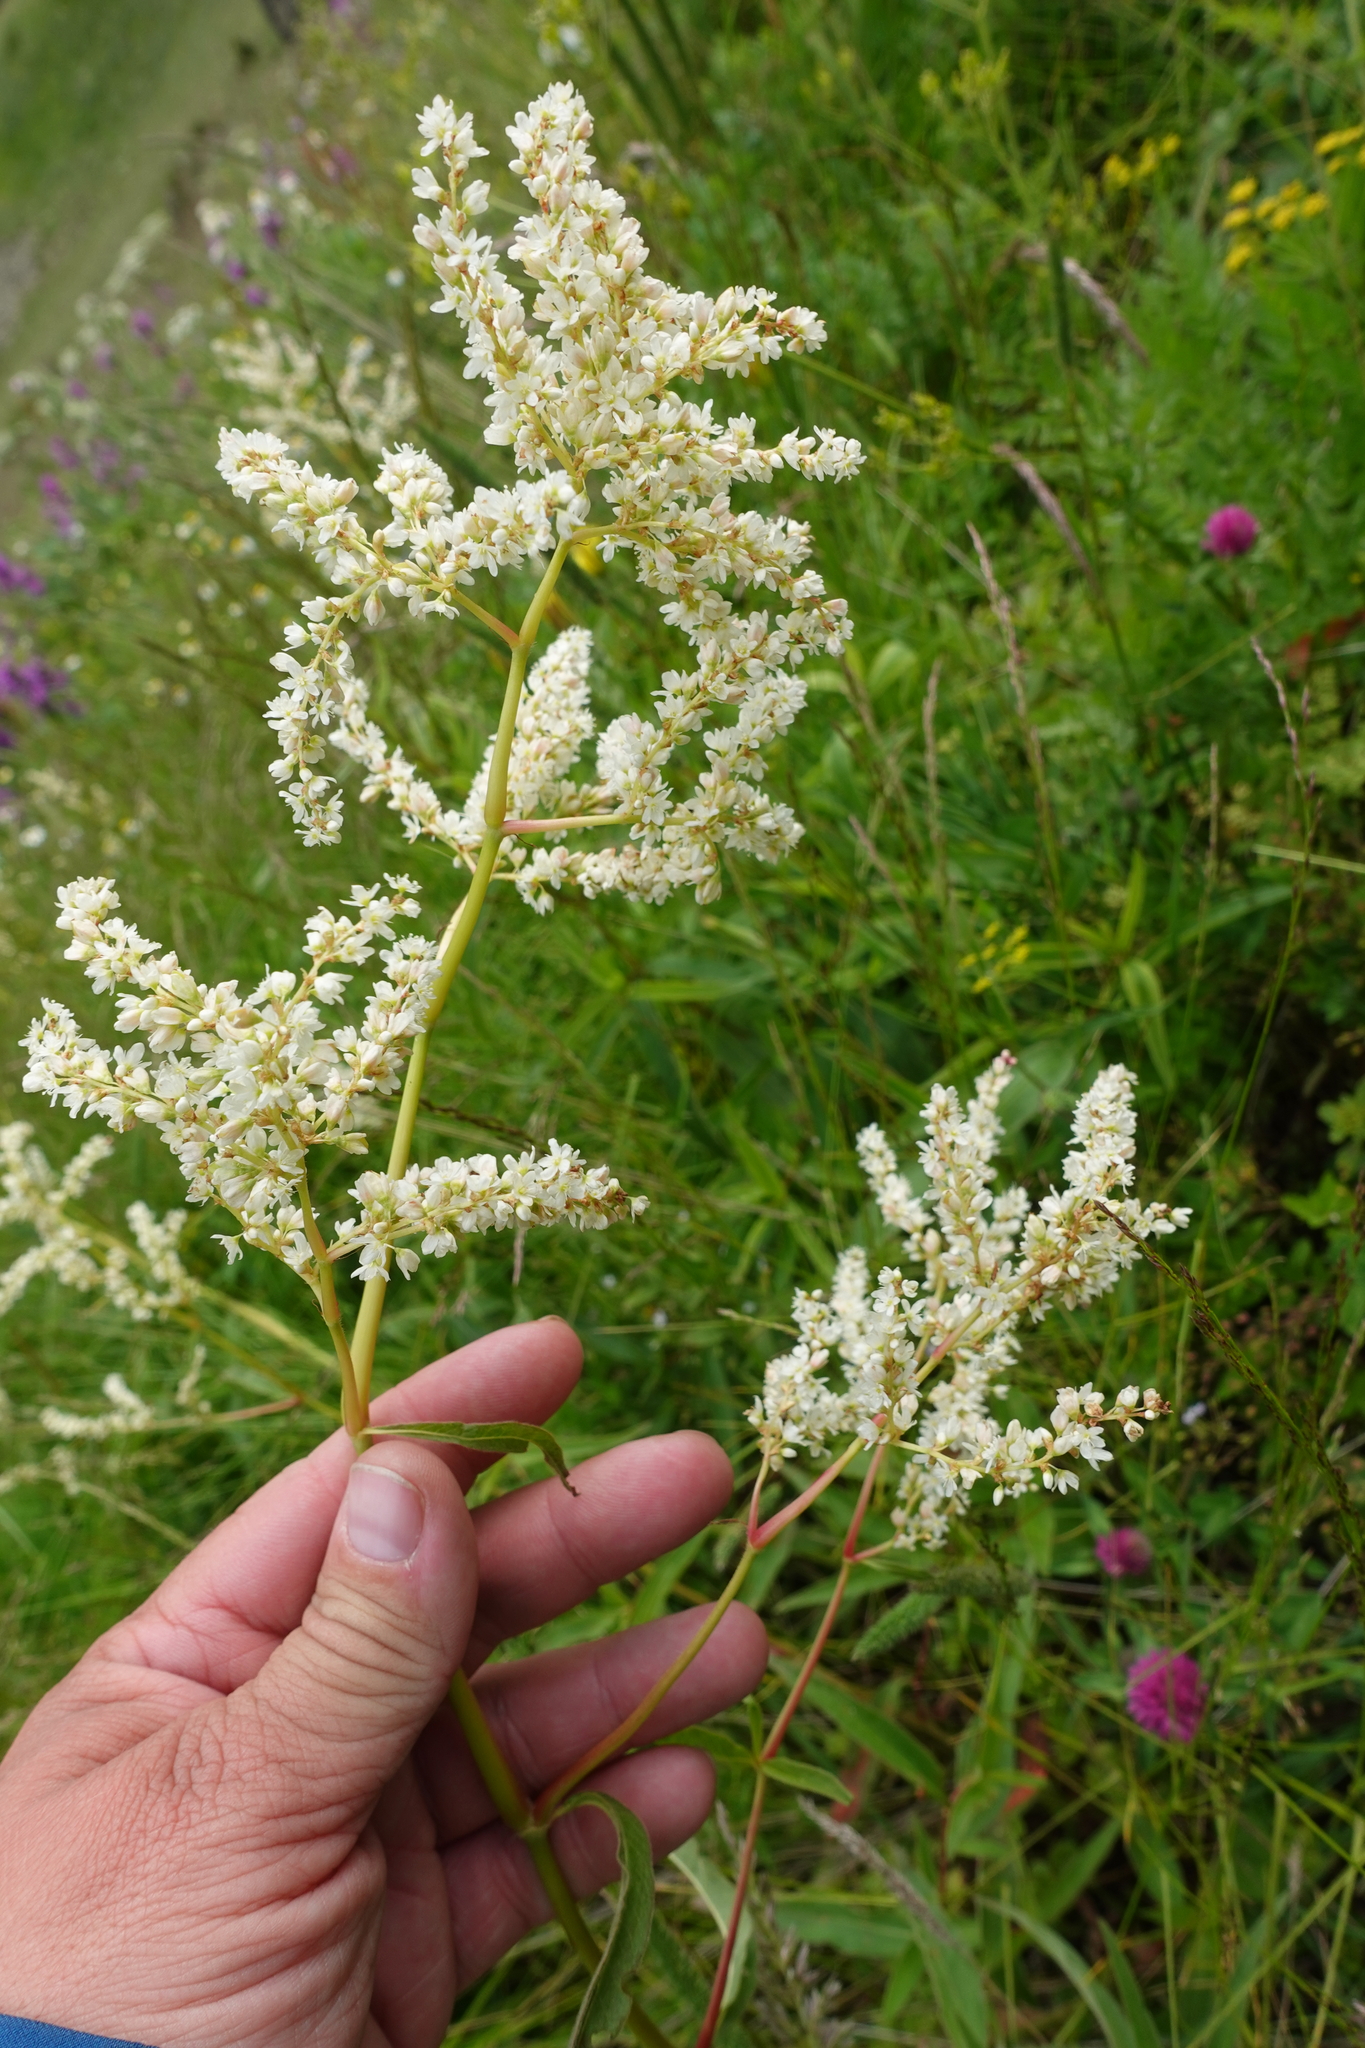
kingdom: Plantae
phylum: Tracheophyta
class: Magnoliopsida
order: Caryophyllales
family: Polygonaceae
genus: Koenigia
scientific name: Koenigia alpina
